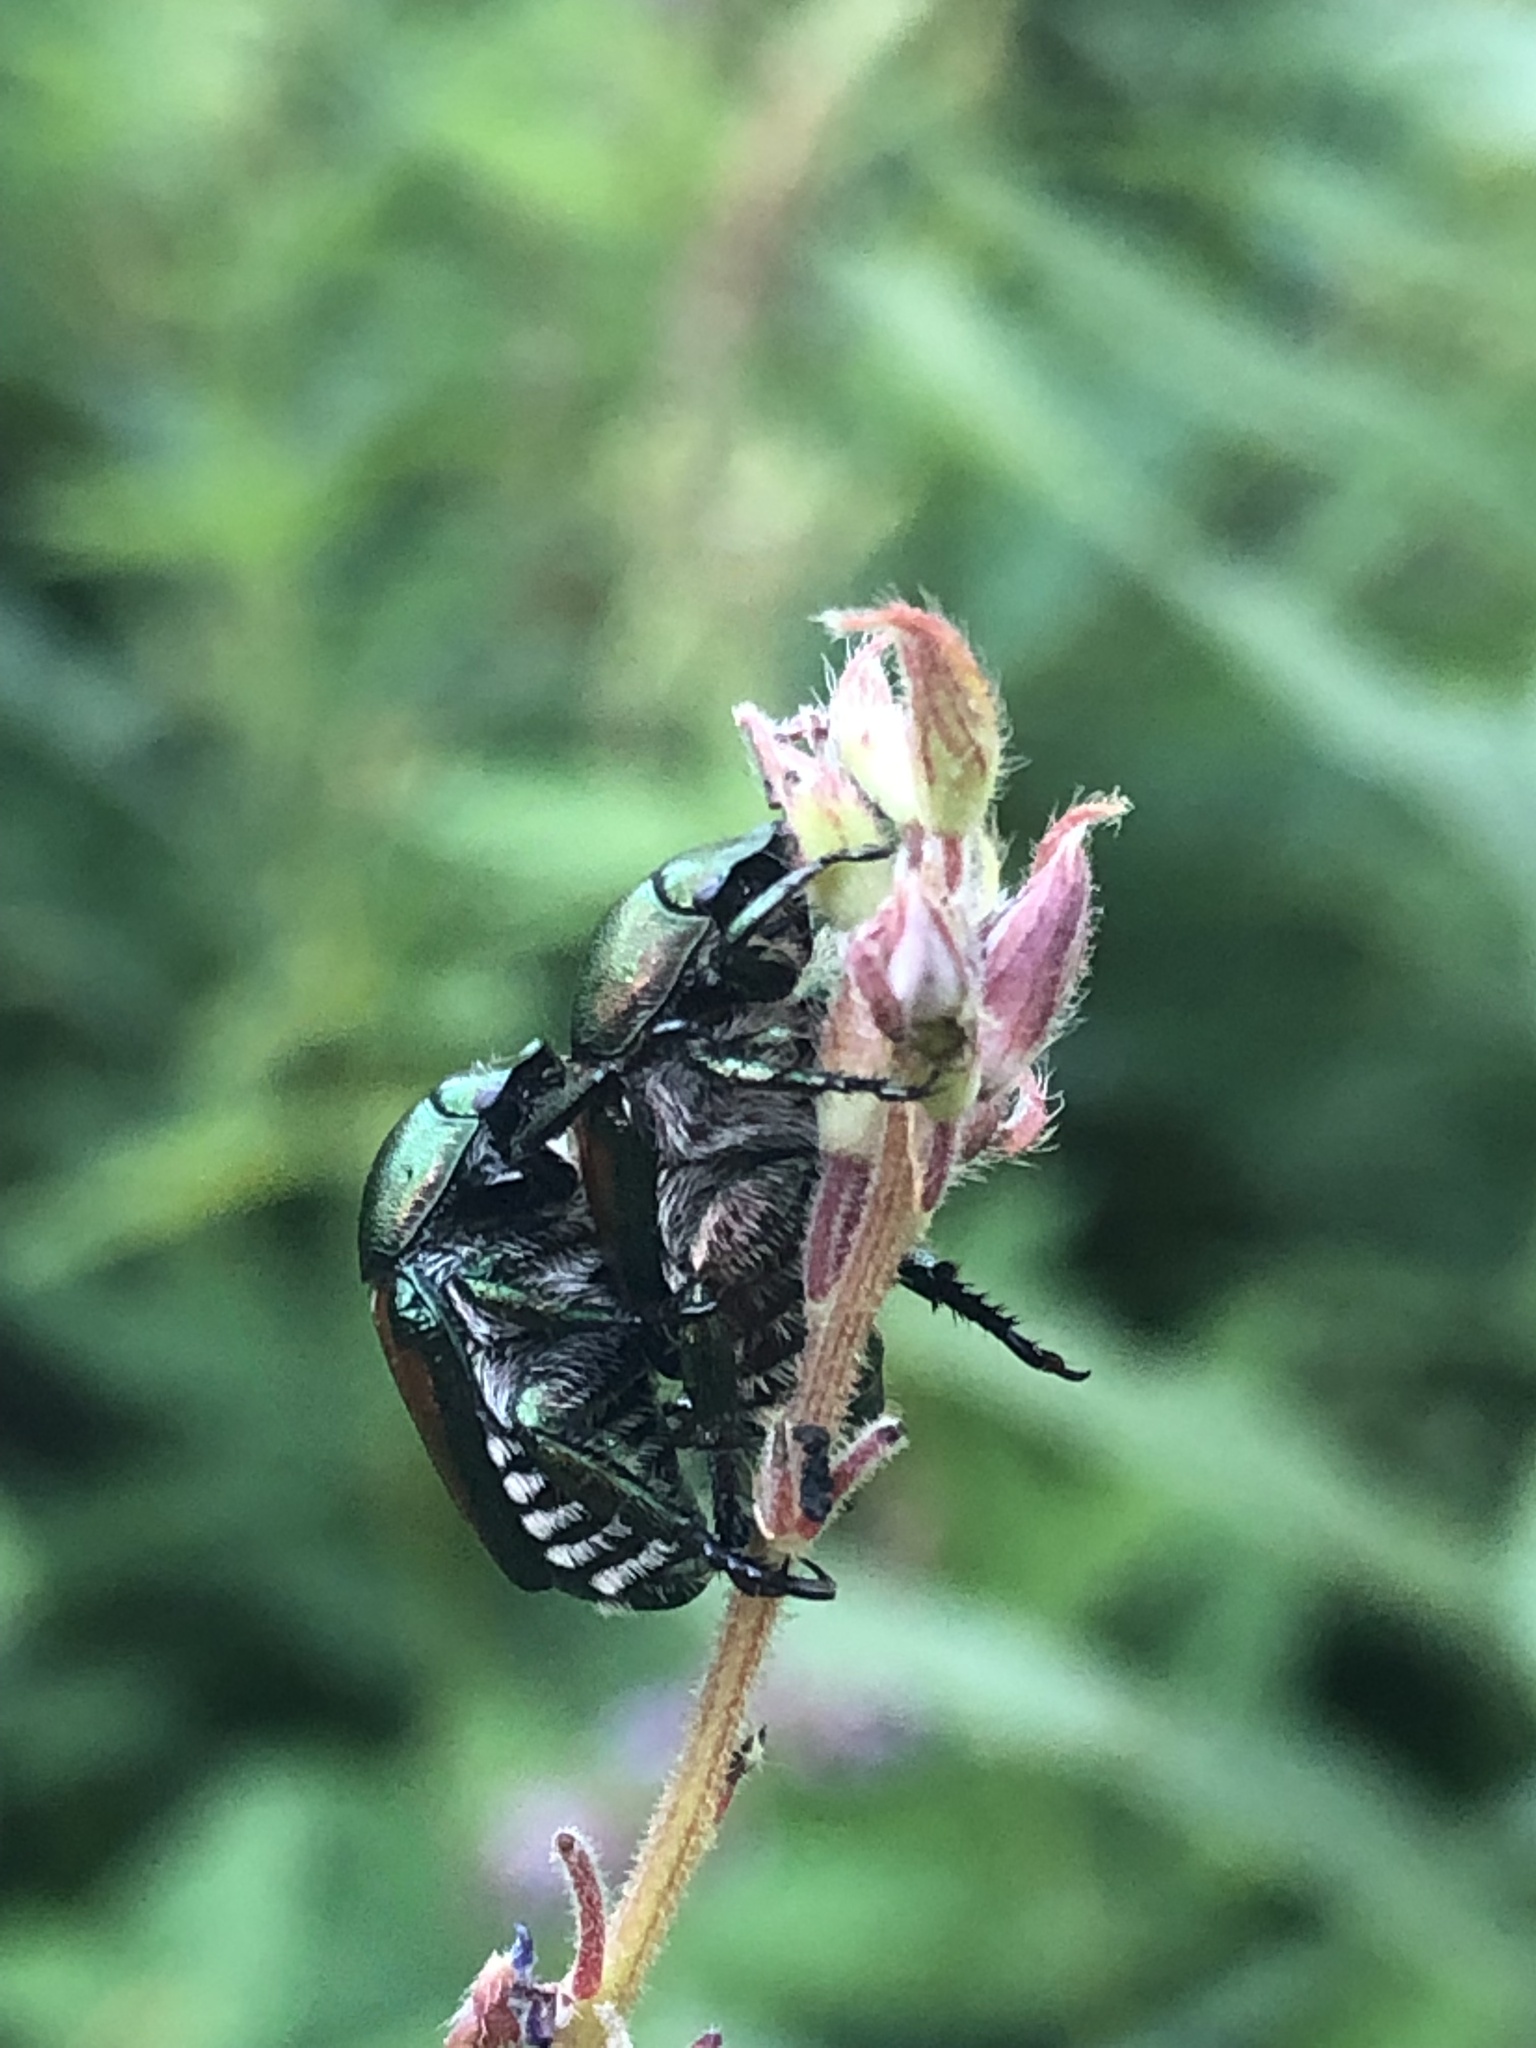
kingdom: Animalia
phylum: Arthropoda
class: Insecta
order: Coleoptera
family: Scarabaeidae
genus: Popillia
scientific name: Popillia japonica
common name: Japanese beetle
